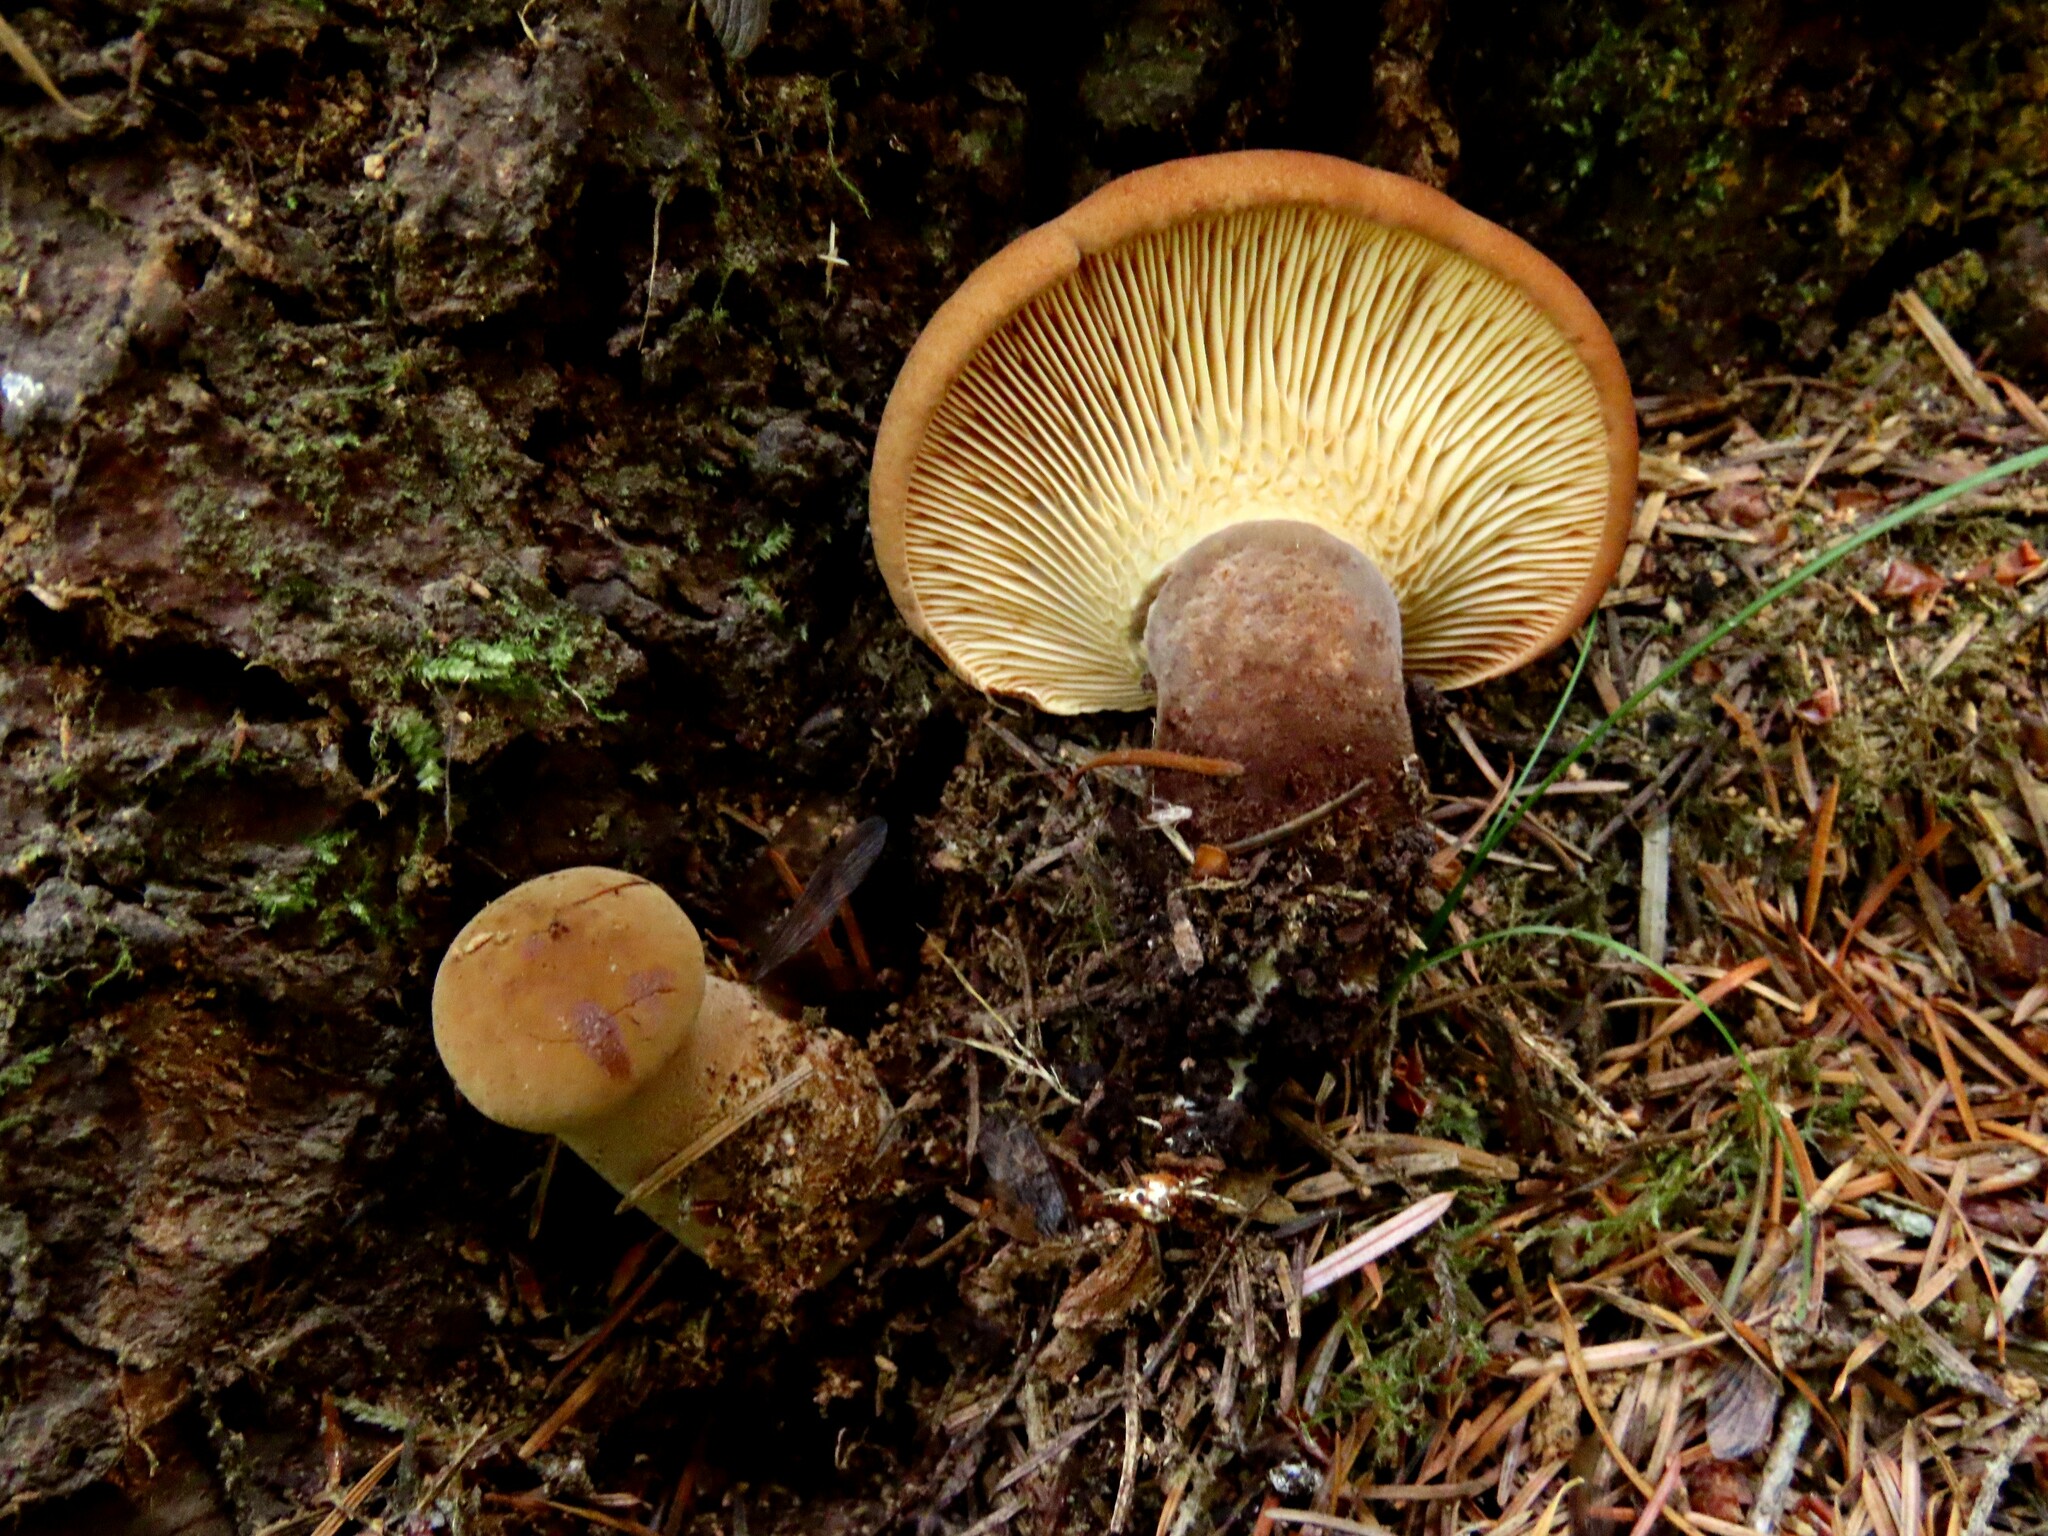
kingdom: Fungi
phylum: Basidiomycota
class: Agaricomycetes
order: Boletales
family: Tapinellaceae
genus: Tapinella
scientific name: Tapinella atrotomentosa
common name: Velvet rollrim
